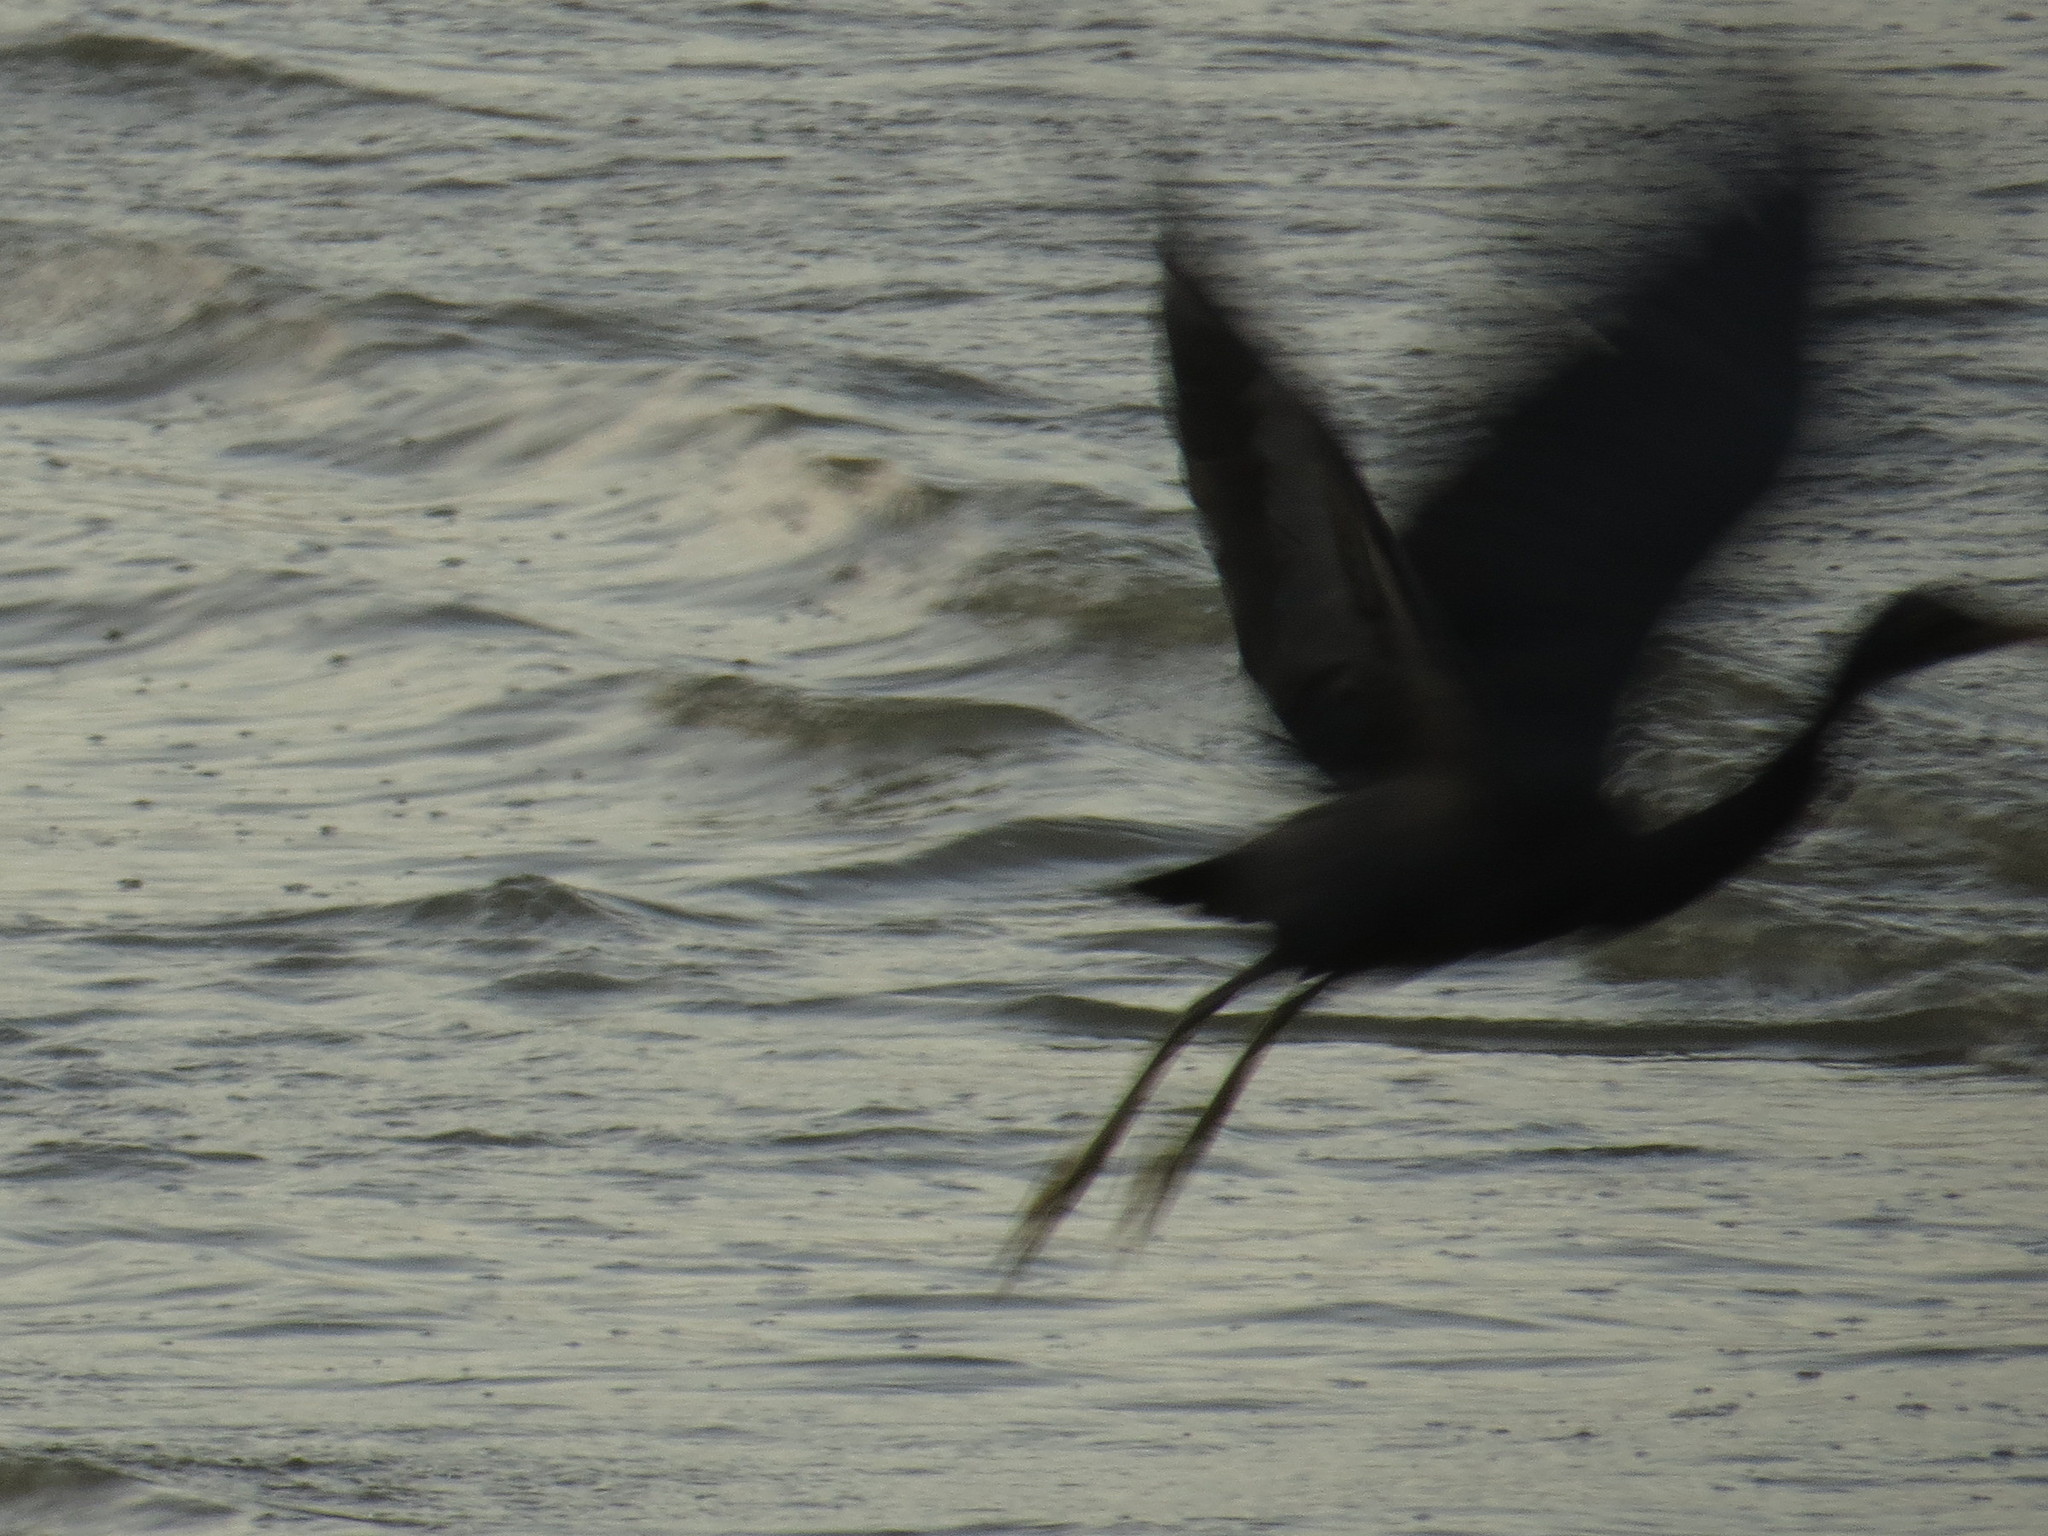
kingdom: Animalia
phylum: Chordata
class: Aves
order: Pelecaniformes
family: Ardeidae
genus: Egretta
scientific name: Egretta sacra
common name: Pacific reef heron
